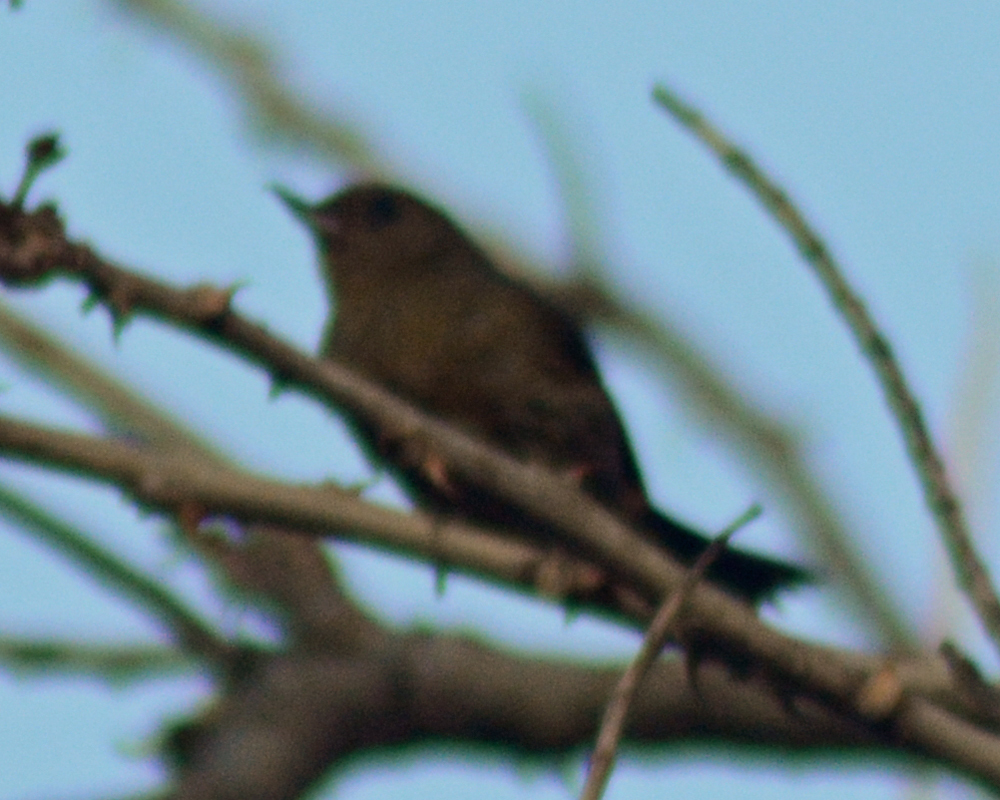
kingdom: Animalia
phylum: Chordata
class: Aves
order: Passeriformes
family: Thraupidae
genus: Diglossa
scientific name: Diglossa baritula
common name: Cinnamon-bellied flowerpiercer
